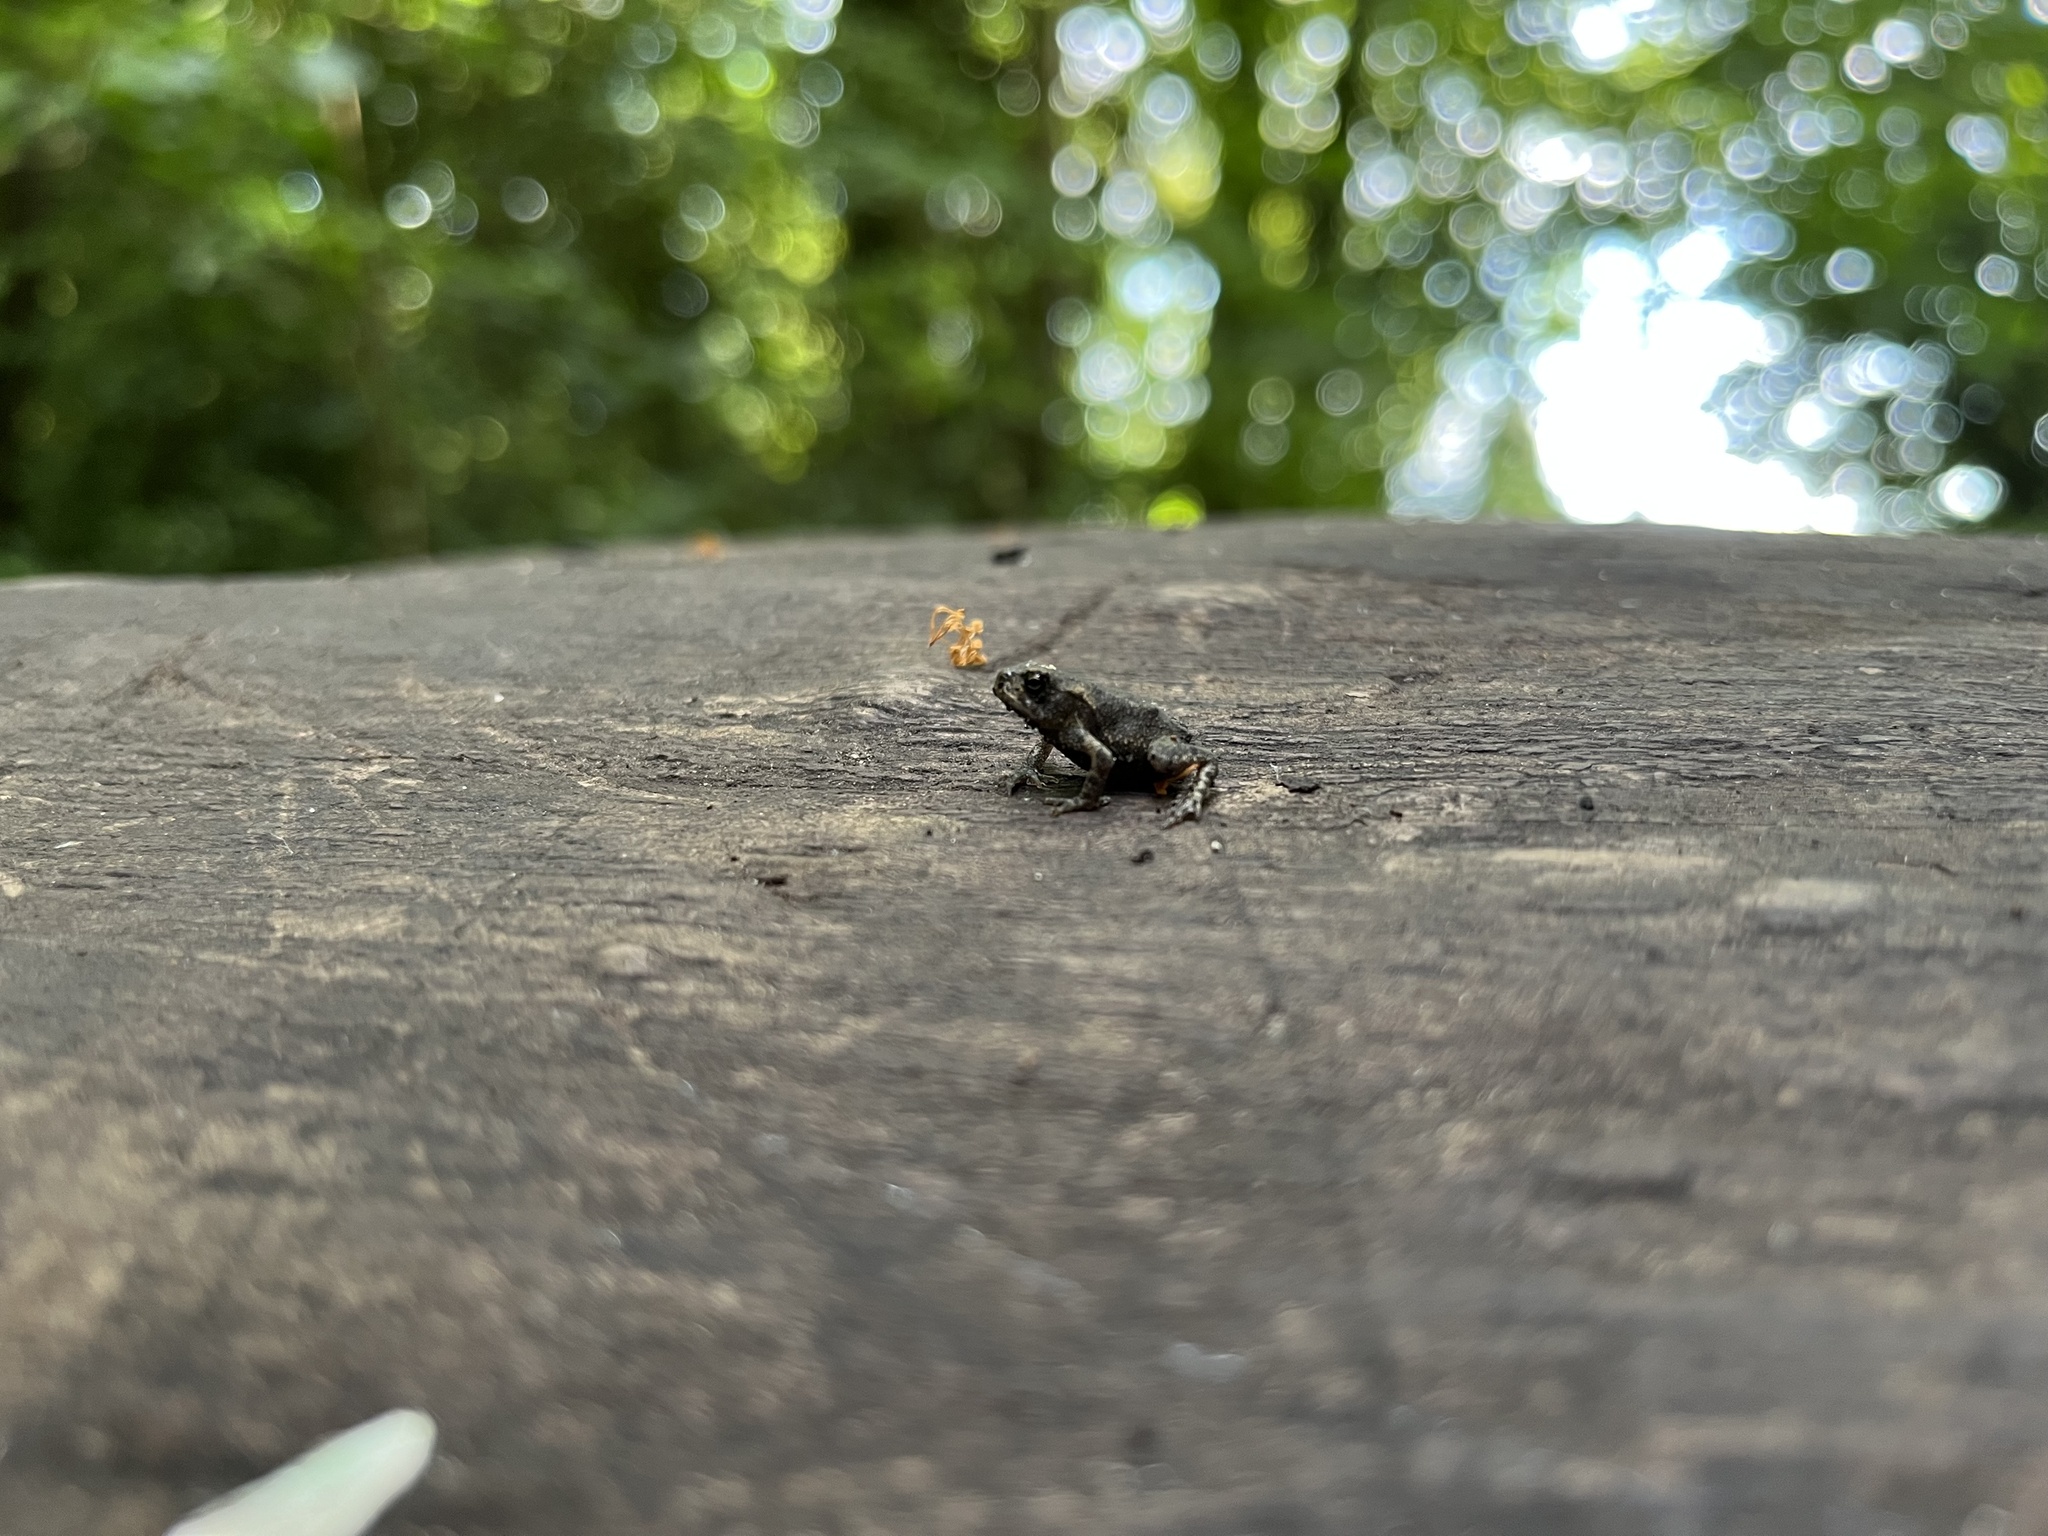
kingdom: Animalia
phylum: Chordata
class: Amphibia
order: Anura
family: Bufonidae
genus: Bufo
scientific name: Bufo bufo
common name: Common toad
